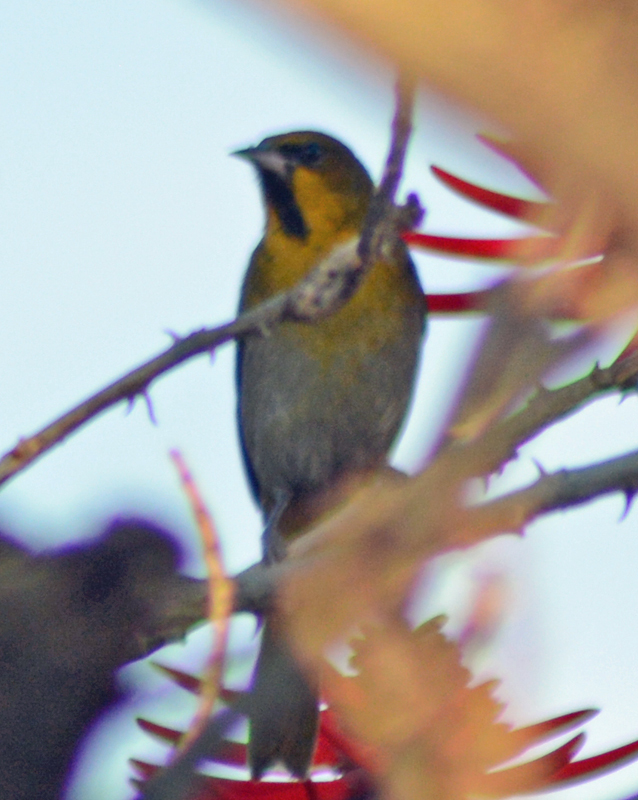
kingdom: Animalia
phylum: Chordata
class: Aves
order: Passeriformes
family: Icteridae
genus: Icterus
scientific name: Icterus abeillei
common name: Black-backed oriole
